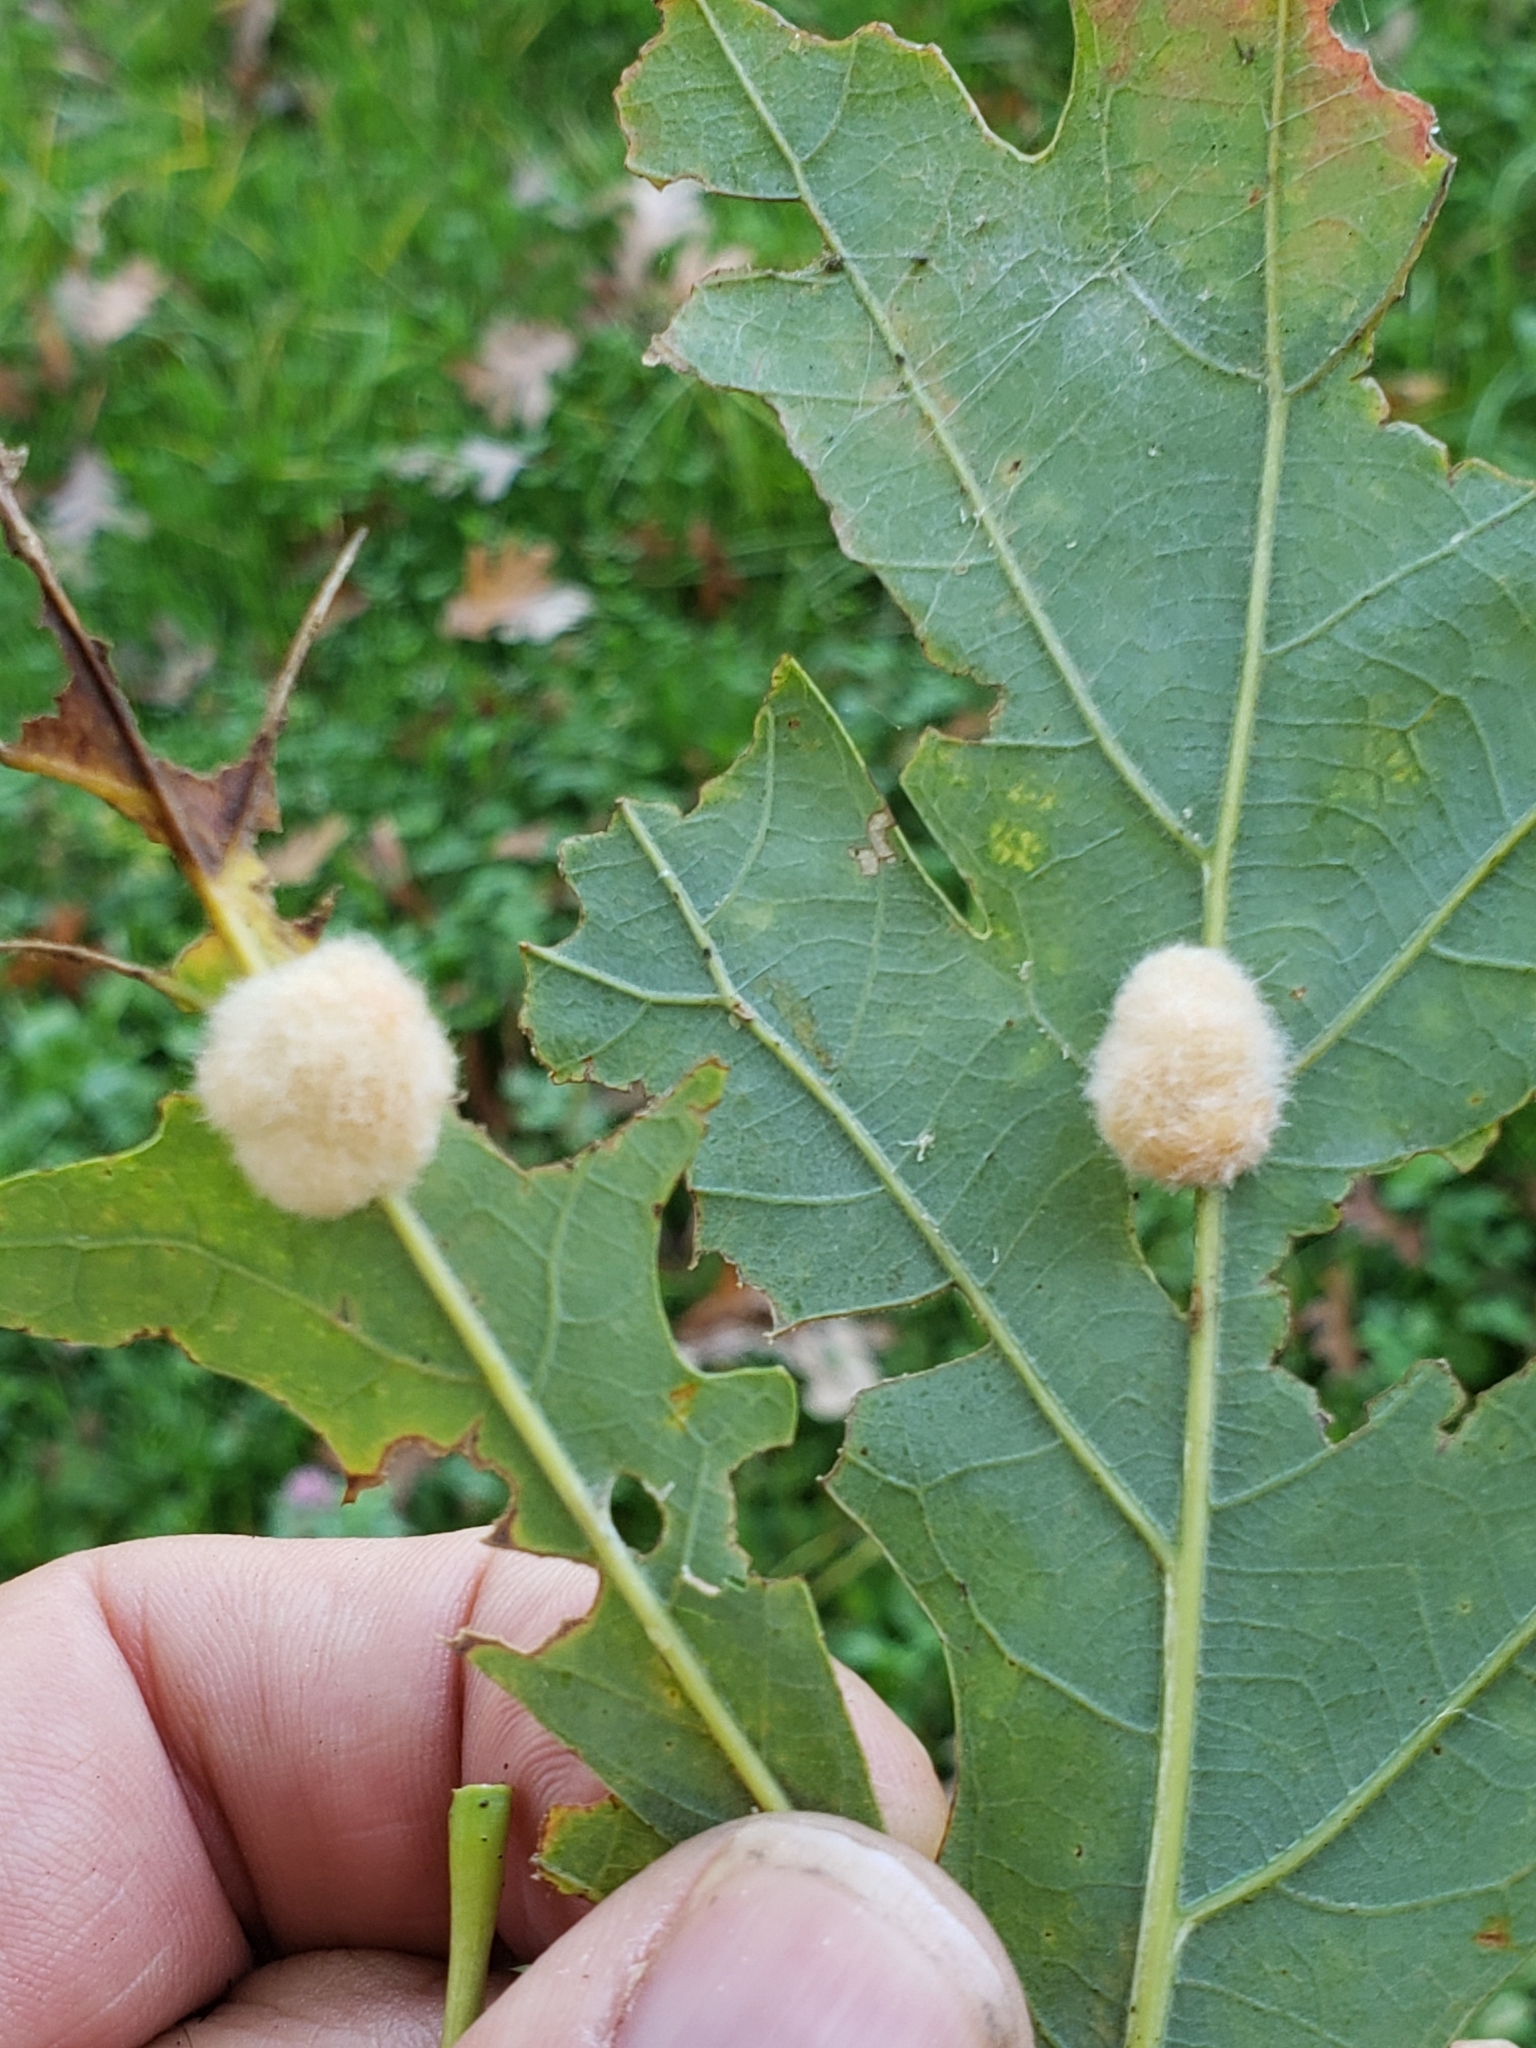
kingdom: Animalia
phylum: Arthropoda
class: Insecta
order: Hymenoptera
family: Cynipidae
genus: Andricus
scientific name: Andricus quercusflocci
